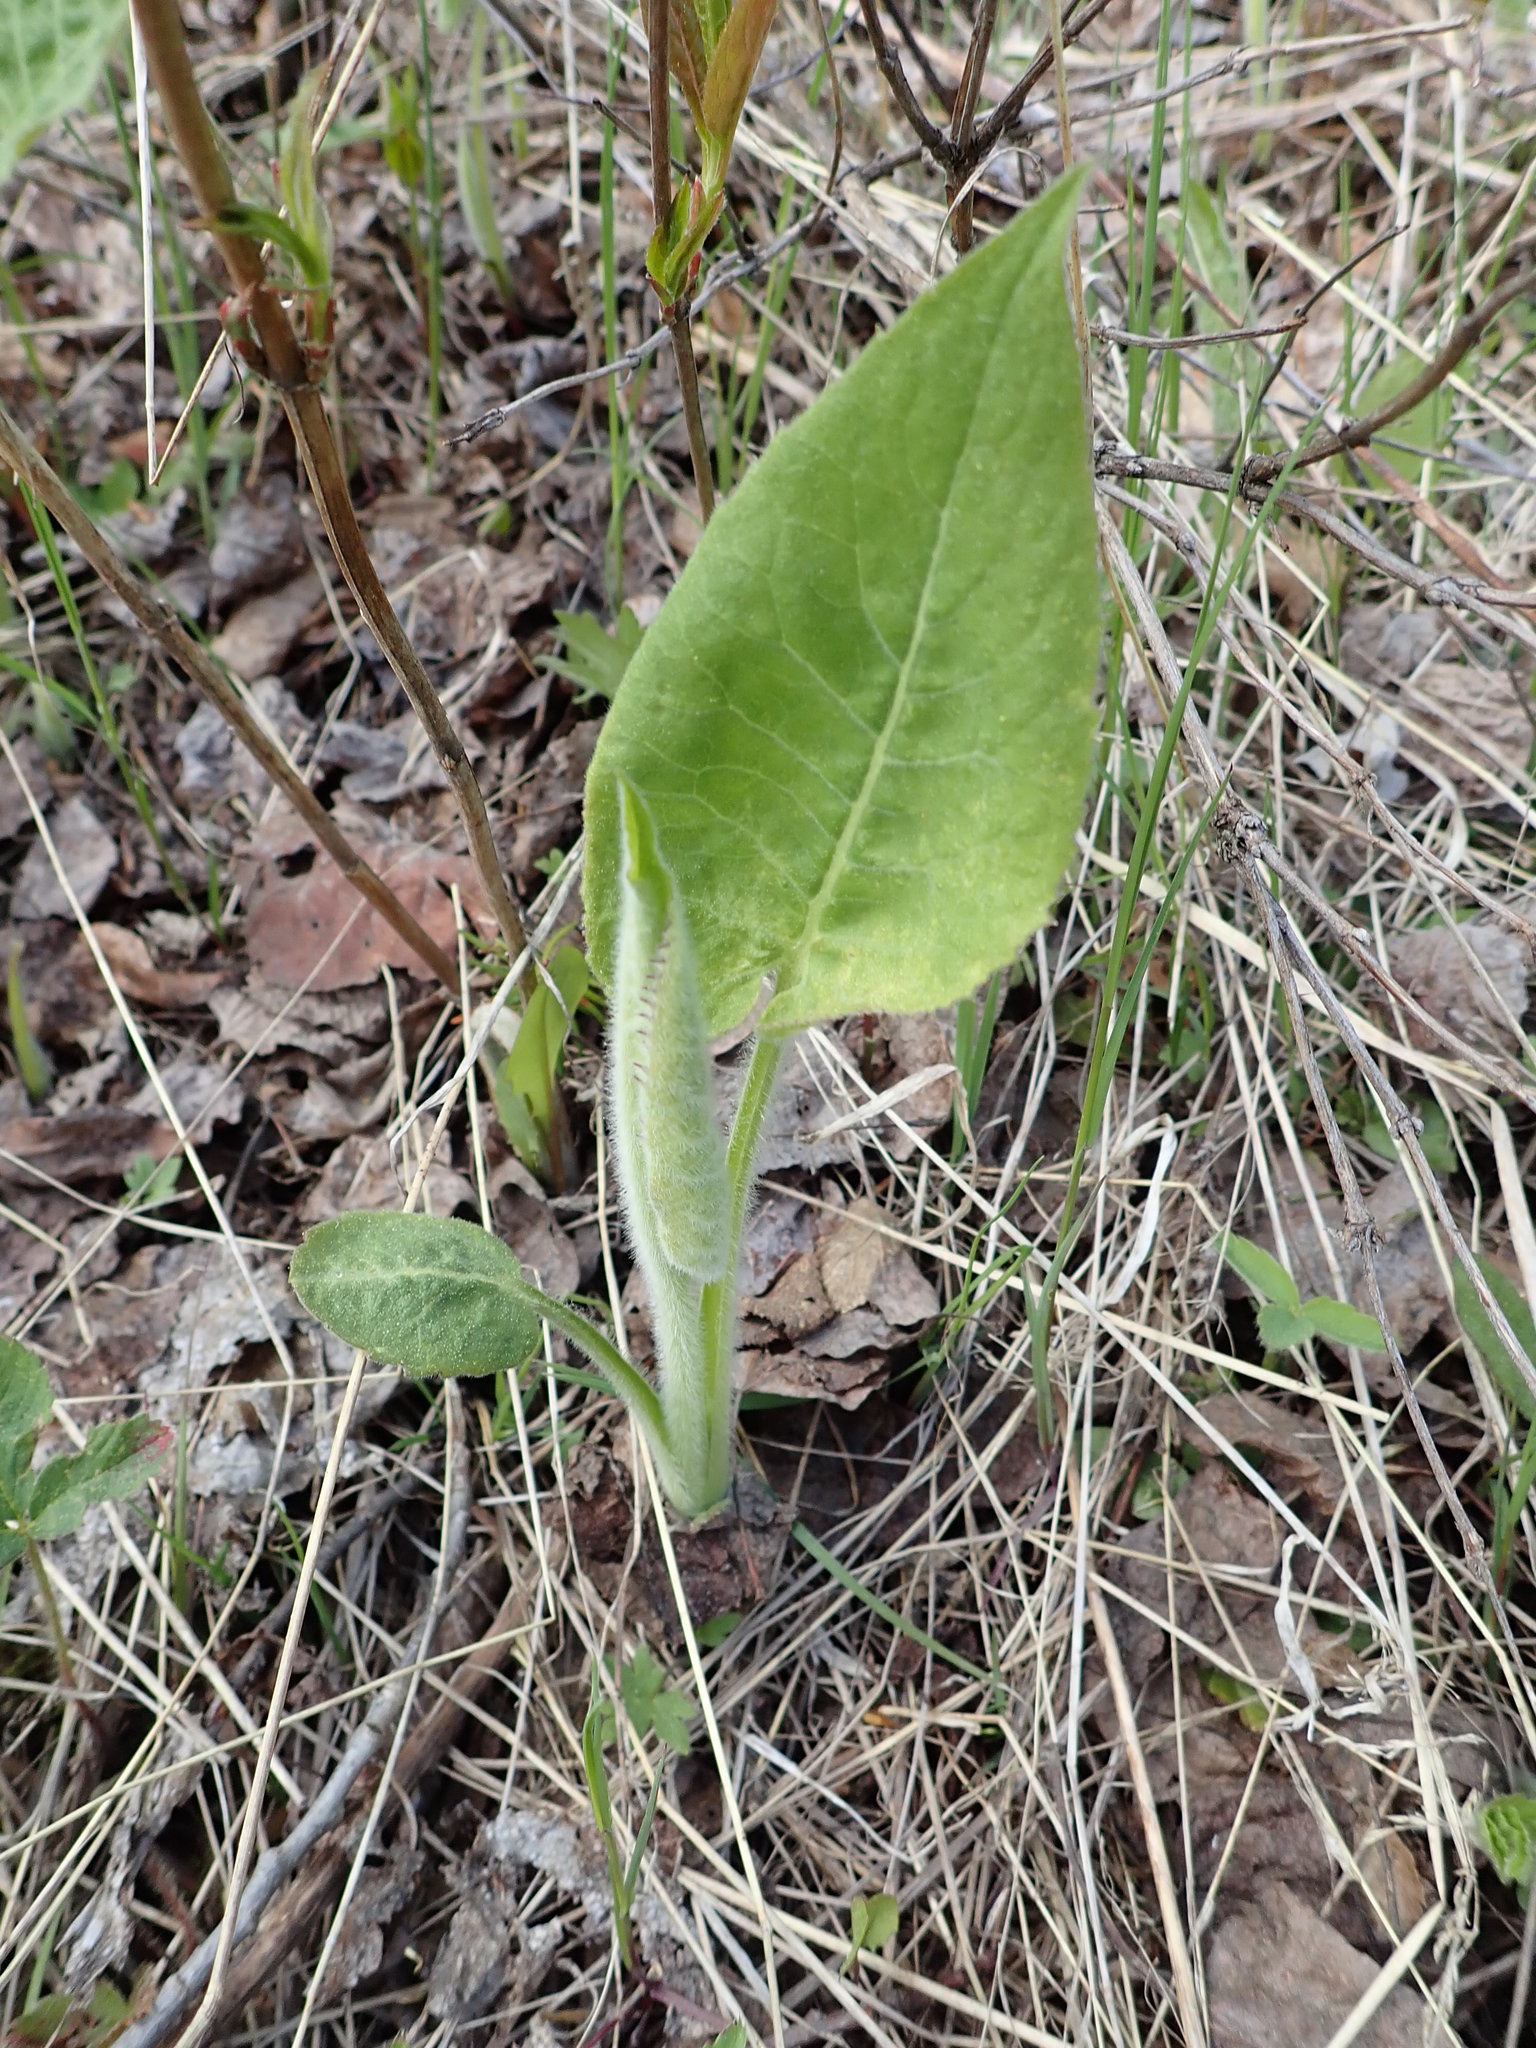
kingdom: Plantae
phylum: Tracheophyta
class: Magnoliopsida
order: Asterales
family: Asteraceae
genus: Eurybia
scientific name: Eurybia macrophylla
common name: Big-leaved aster
